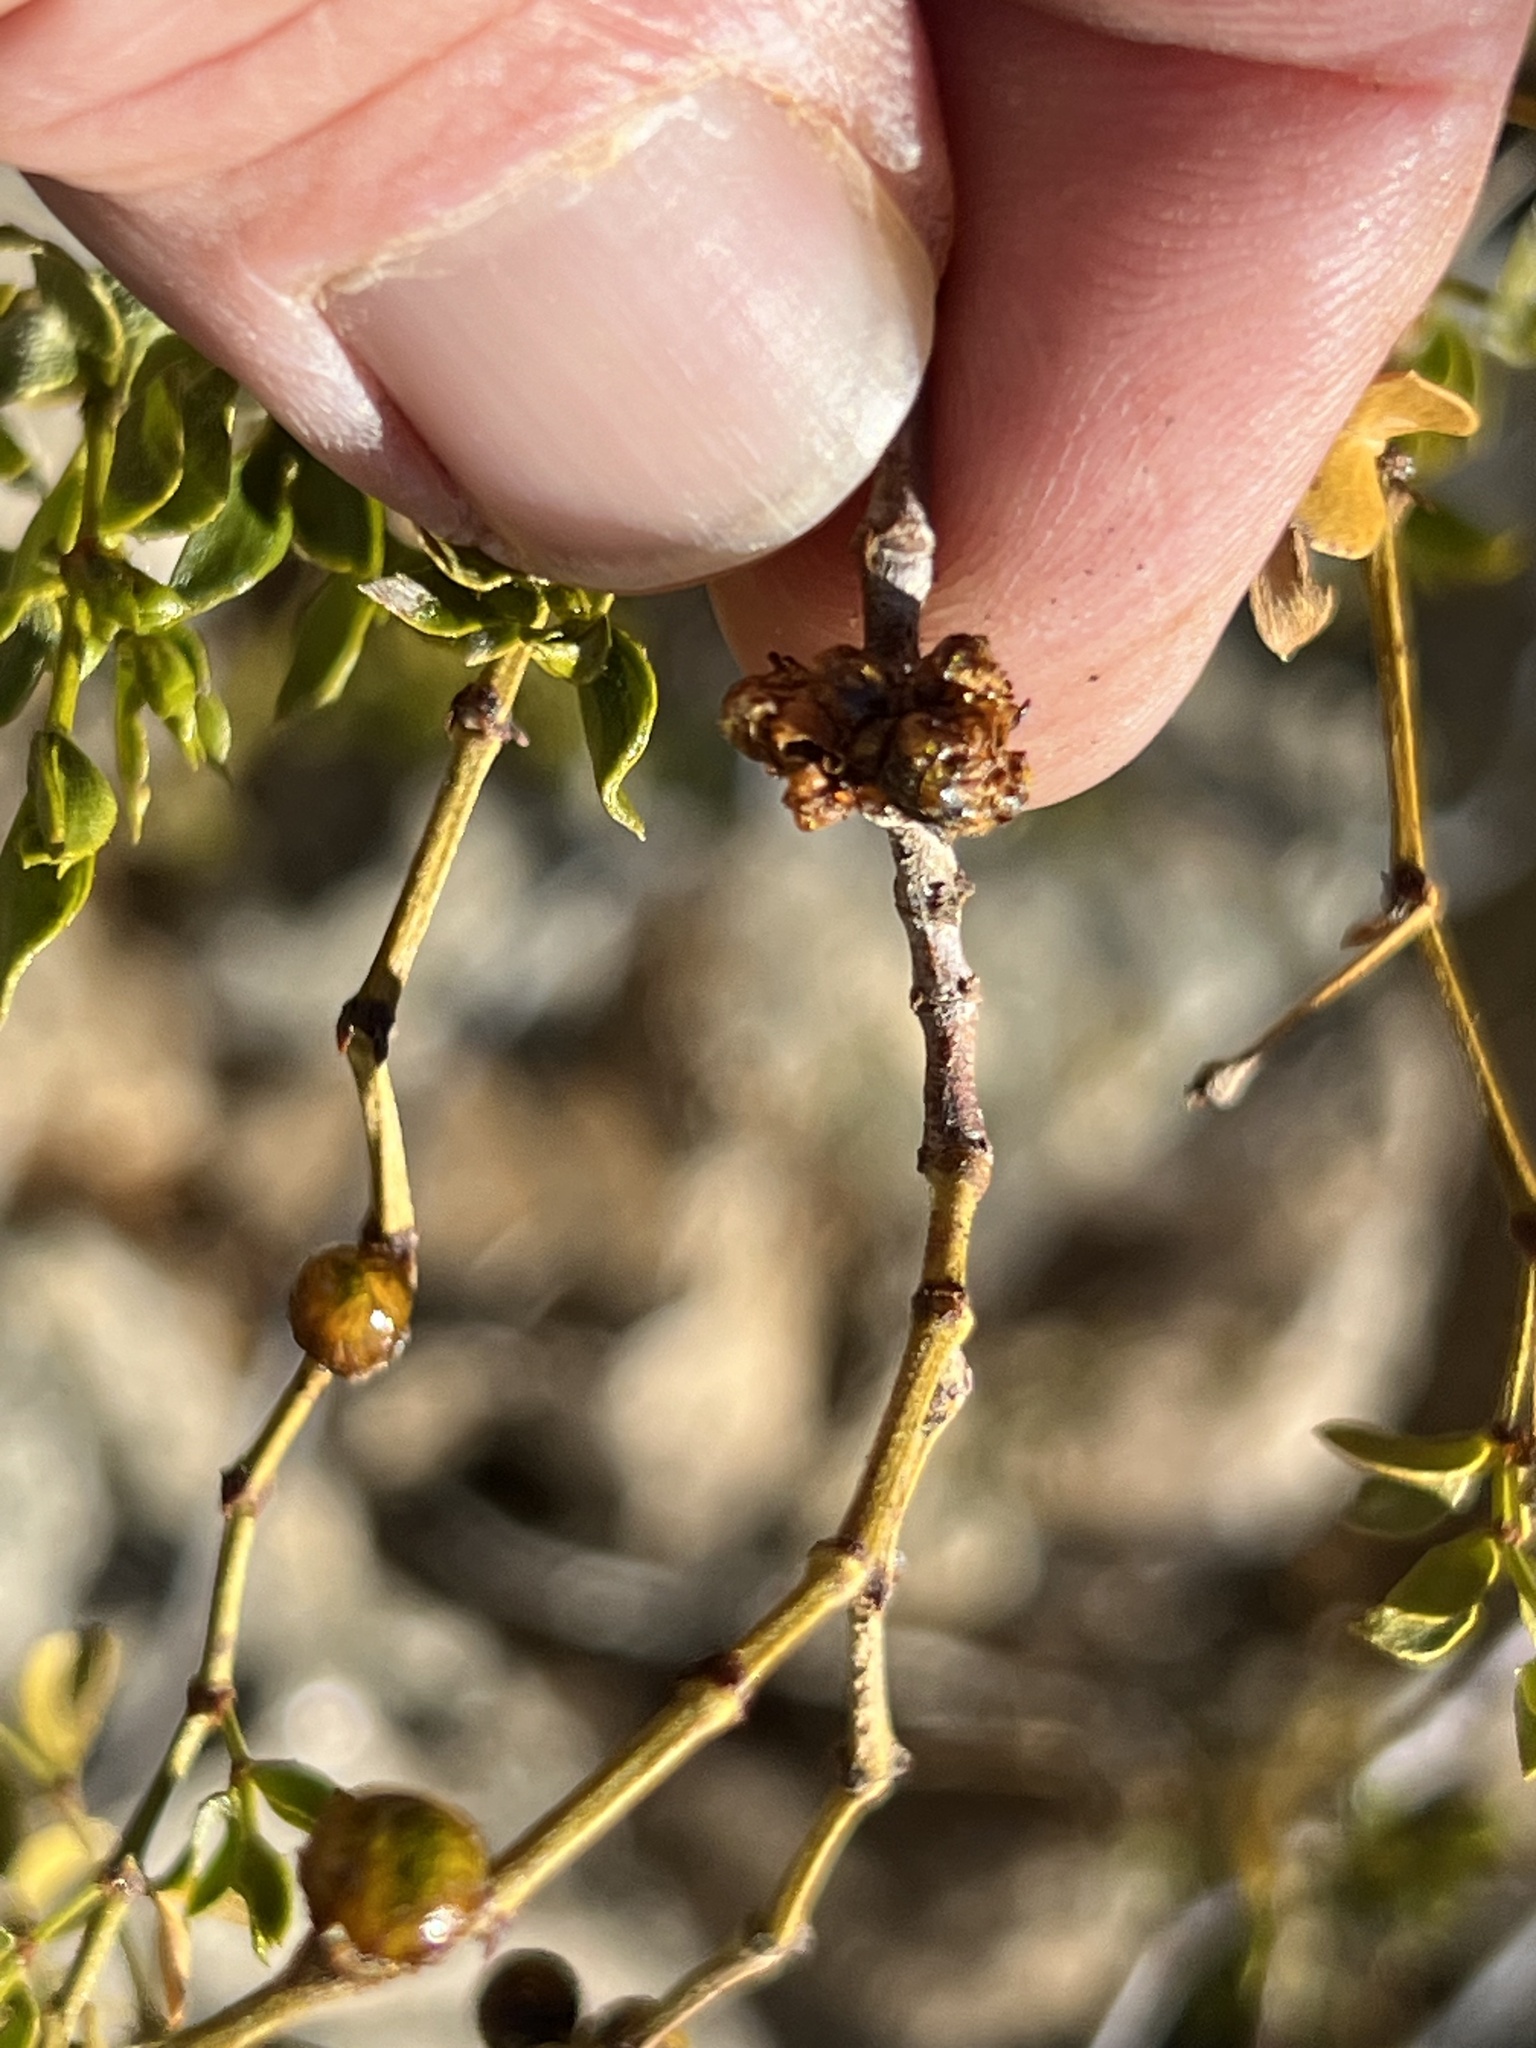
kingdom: Animalia
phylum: Arthropoda
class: Insecta
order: Diptera
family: Cecidomyiidae
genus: Asphondylia
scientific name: Asphondylia resinosa
